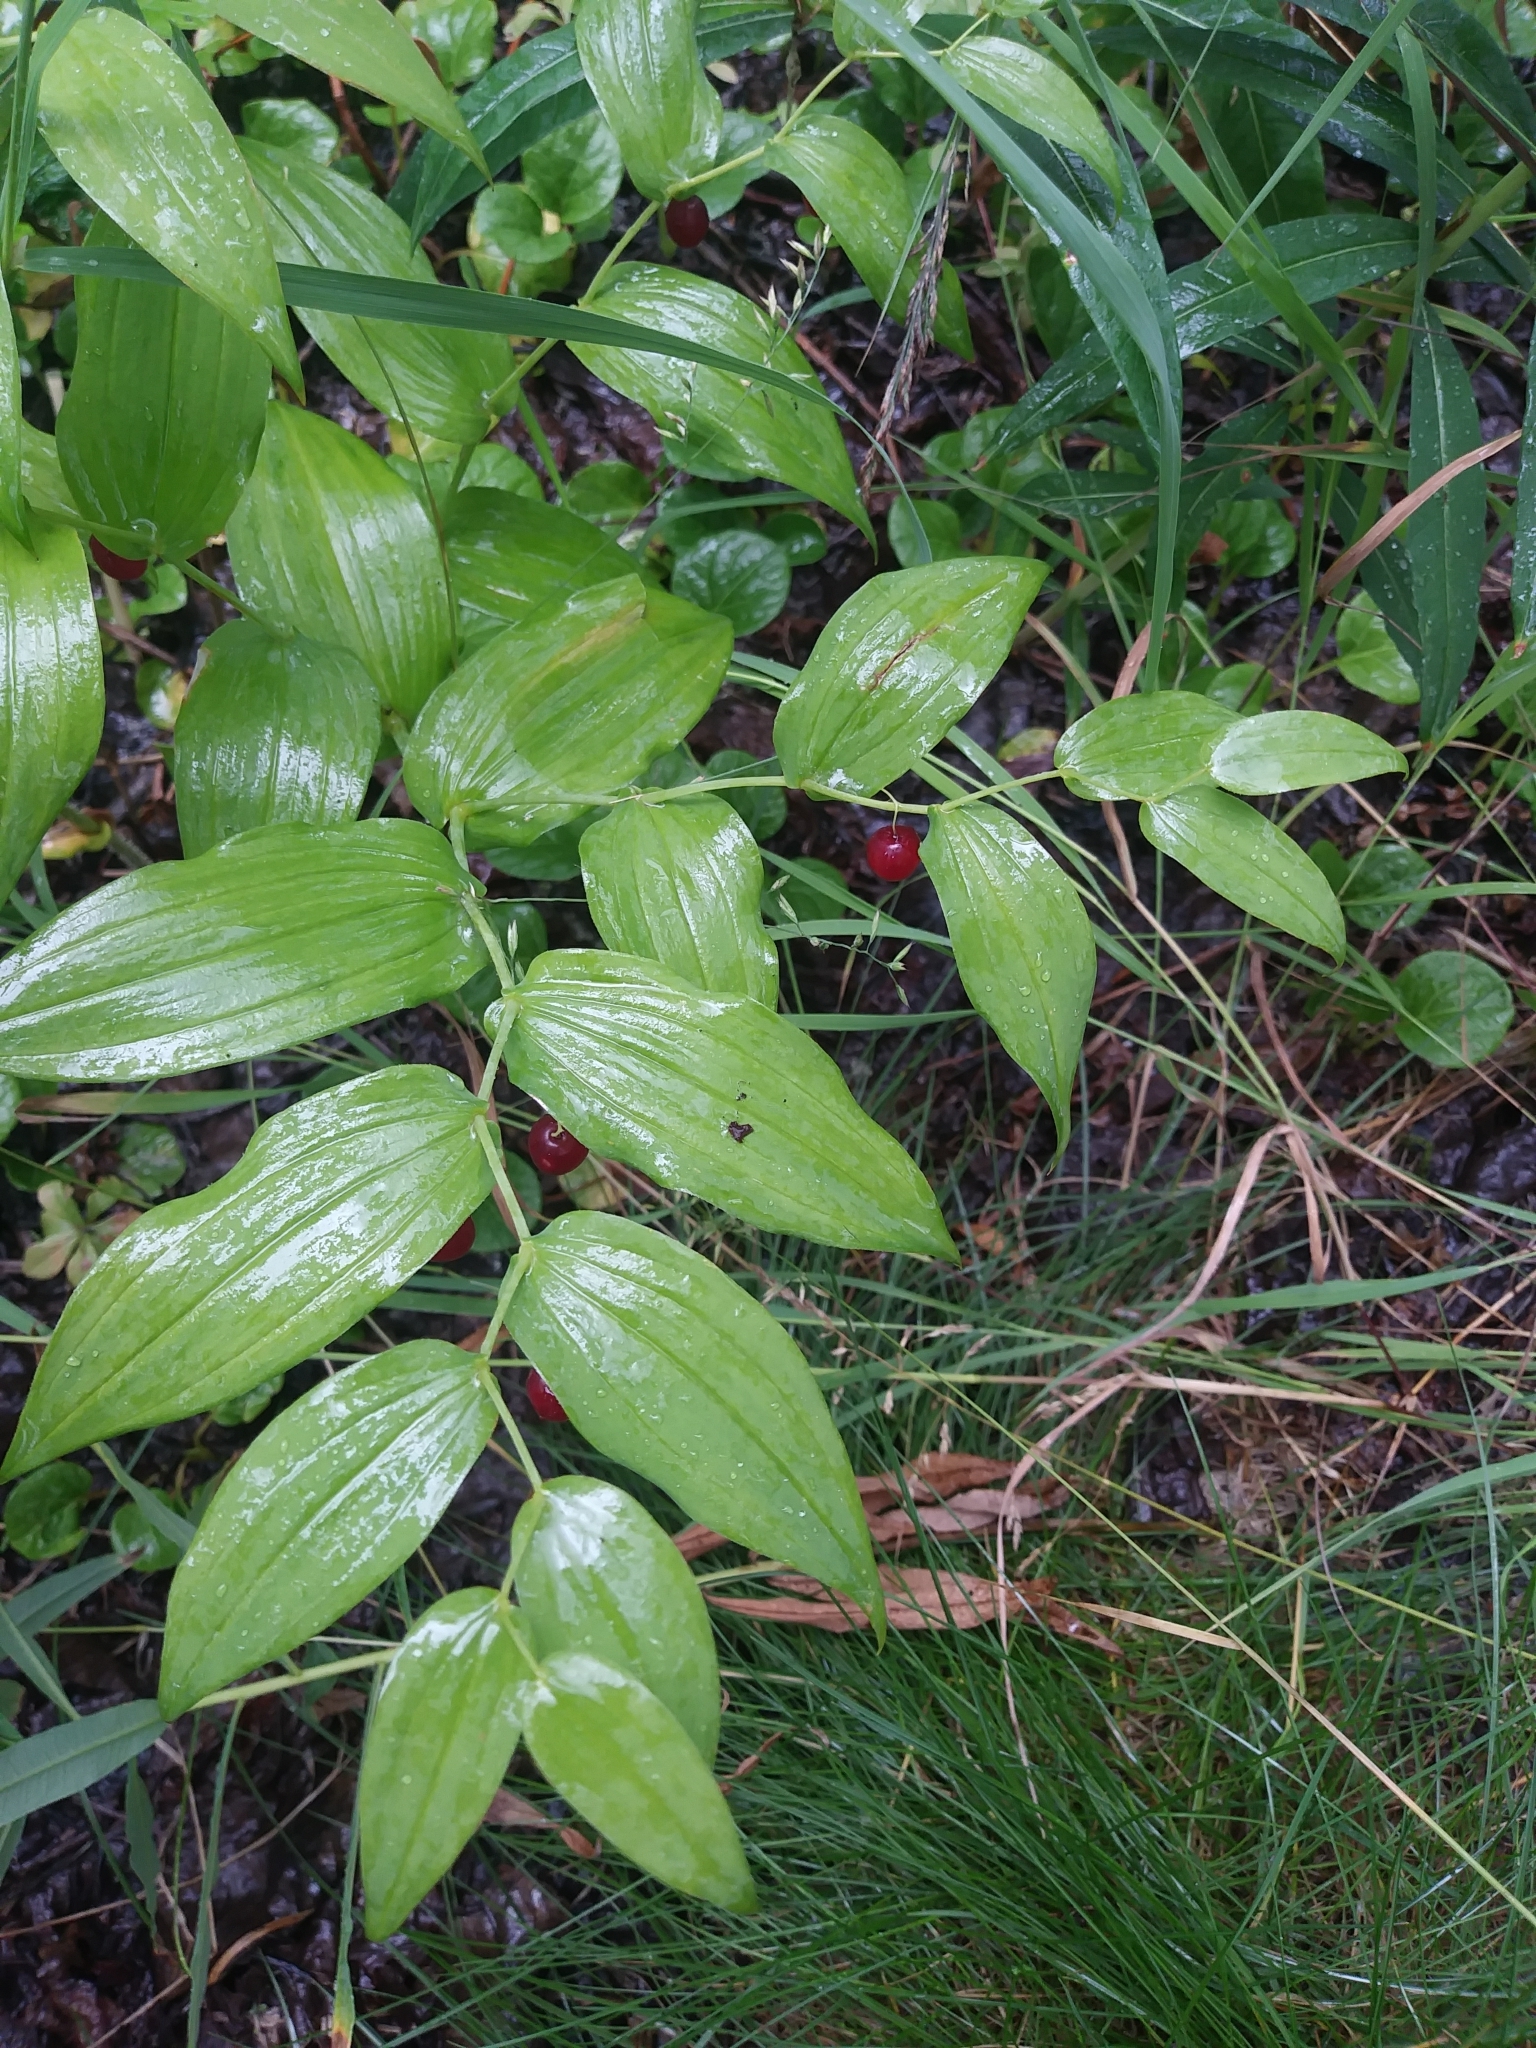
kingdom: Plantae
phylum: Tracheophyta
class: Liliopsida
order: Liliales
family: Liliaceae
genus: Streptopus
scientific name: Streptopus amplexifolius
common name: Clasp twisted stalk
